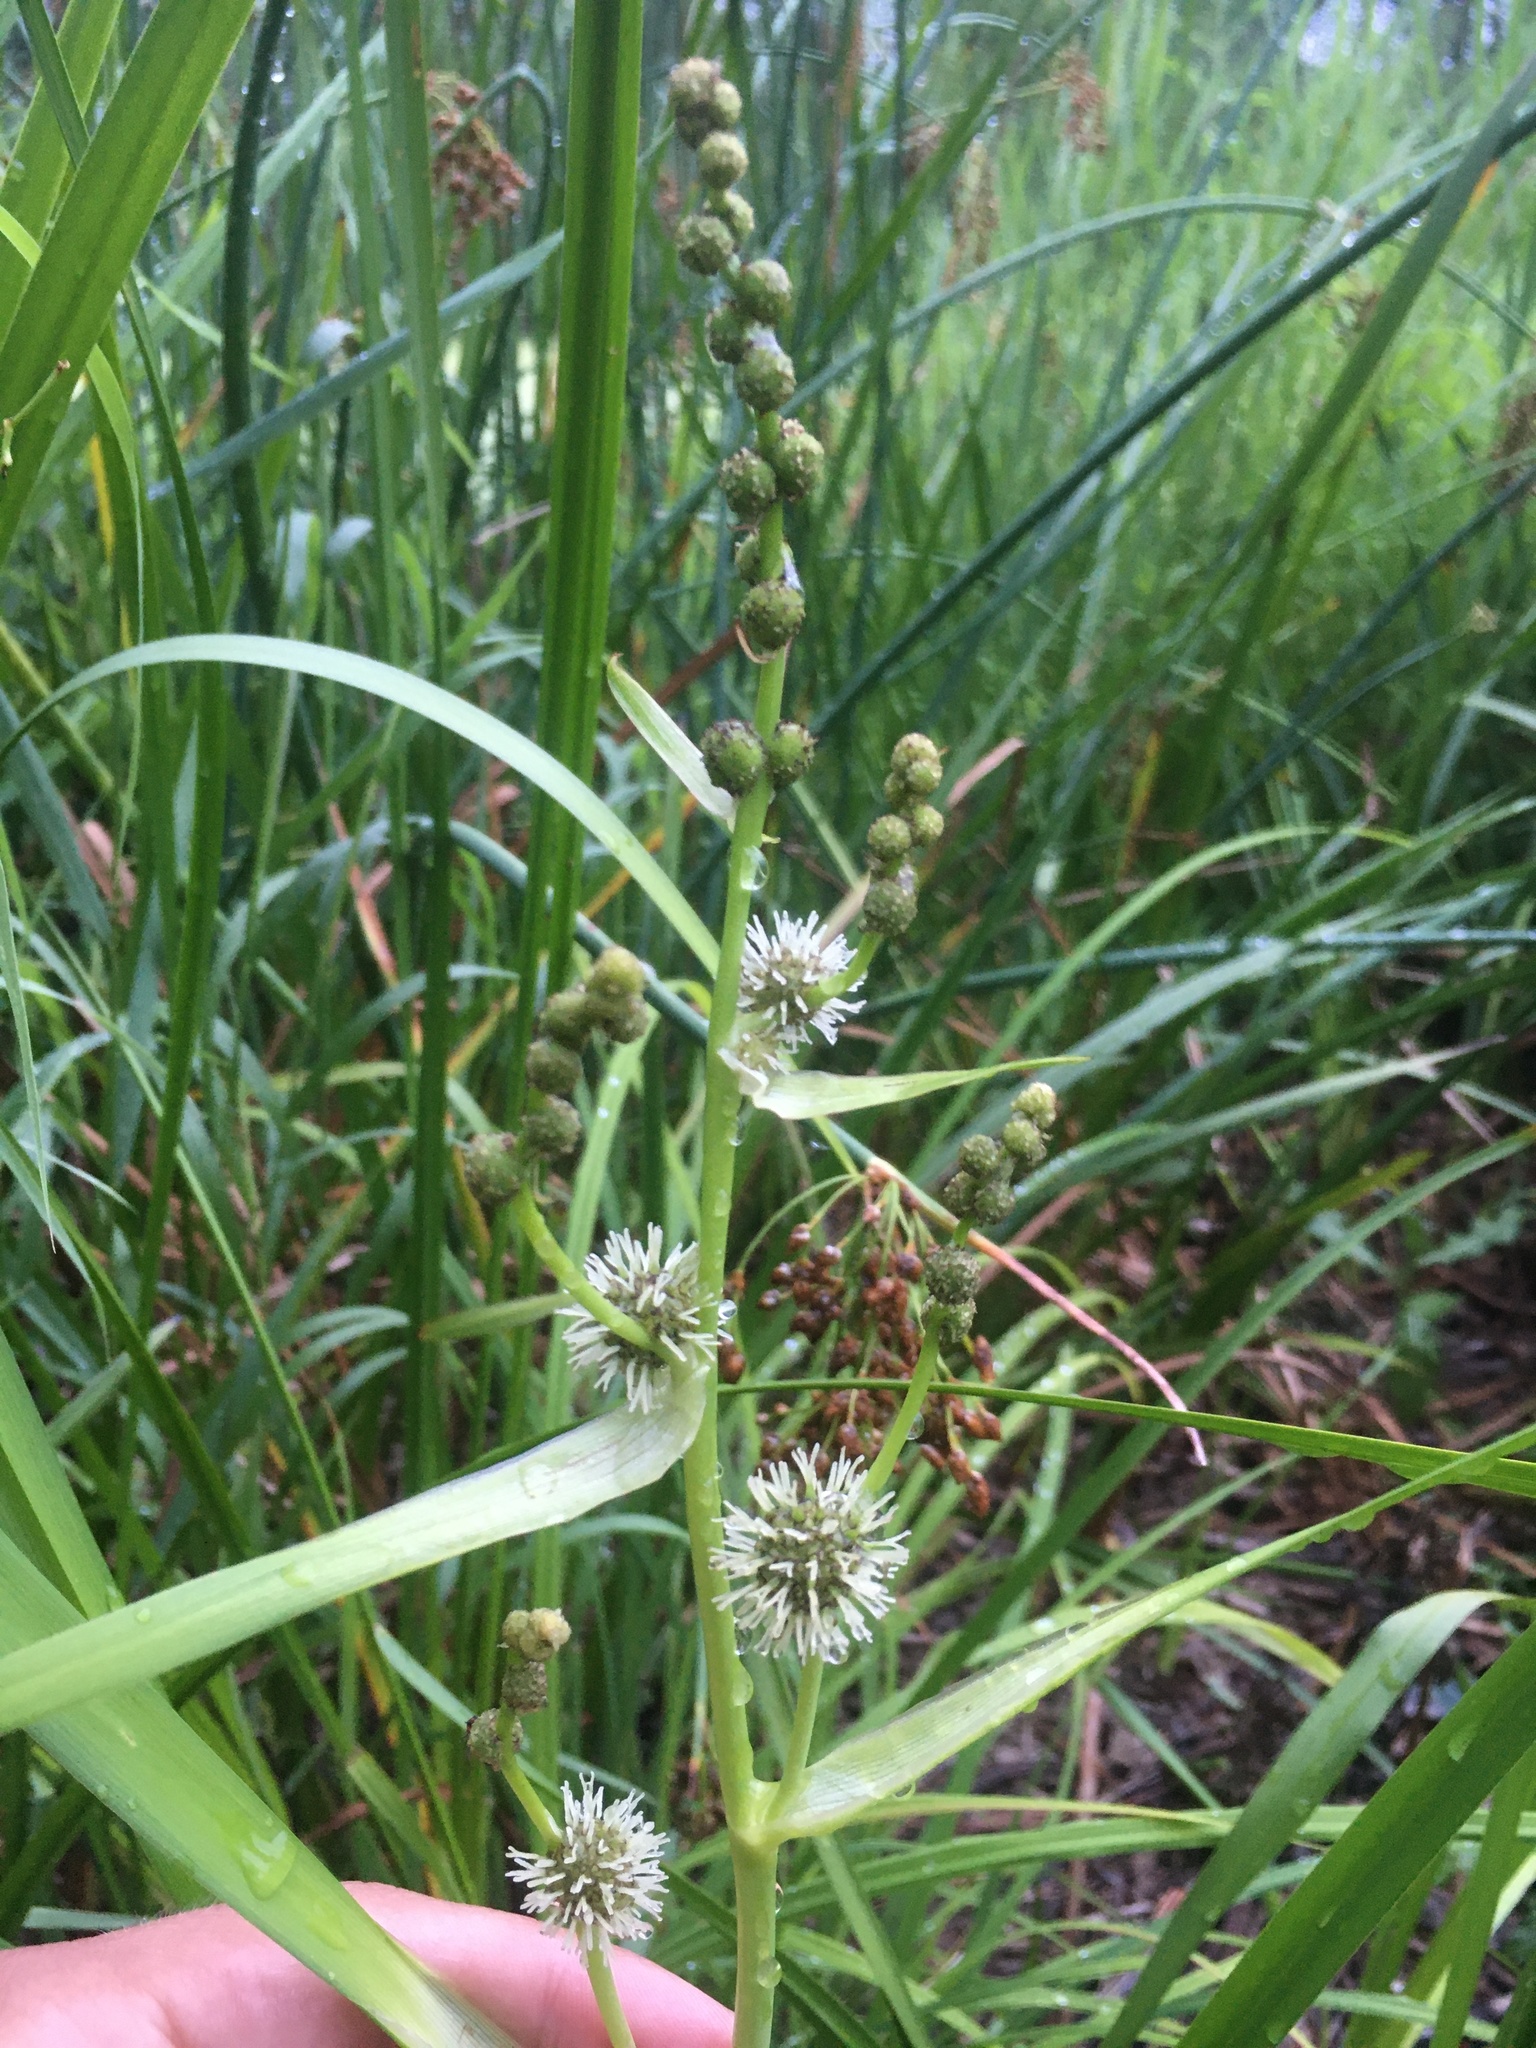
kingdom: Plantae
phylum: Tracheophyta
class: Liliopsida
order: Poales
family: Typhaceae
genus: Sparganium
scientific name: Sparganium eurycarpum
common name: Broad-fruited burreed
